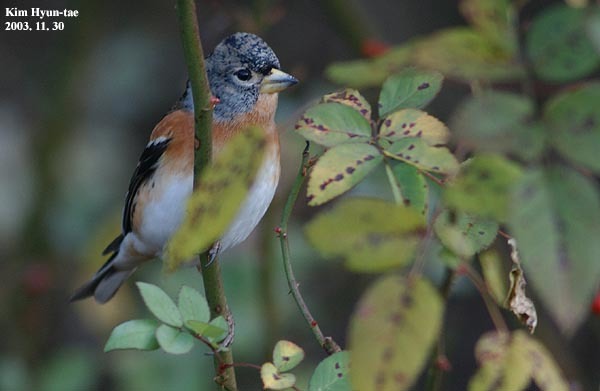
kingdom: Animalia
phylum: Chordata
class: Aves
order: Passeriformes
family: Fringillidae
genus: Fringilla
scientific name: Fringilla montifringilla
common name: Brambling
